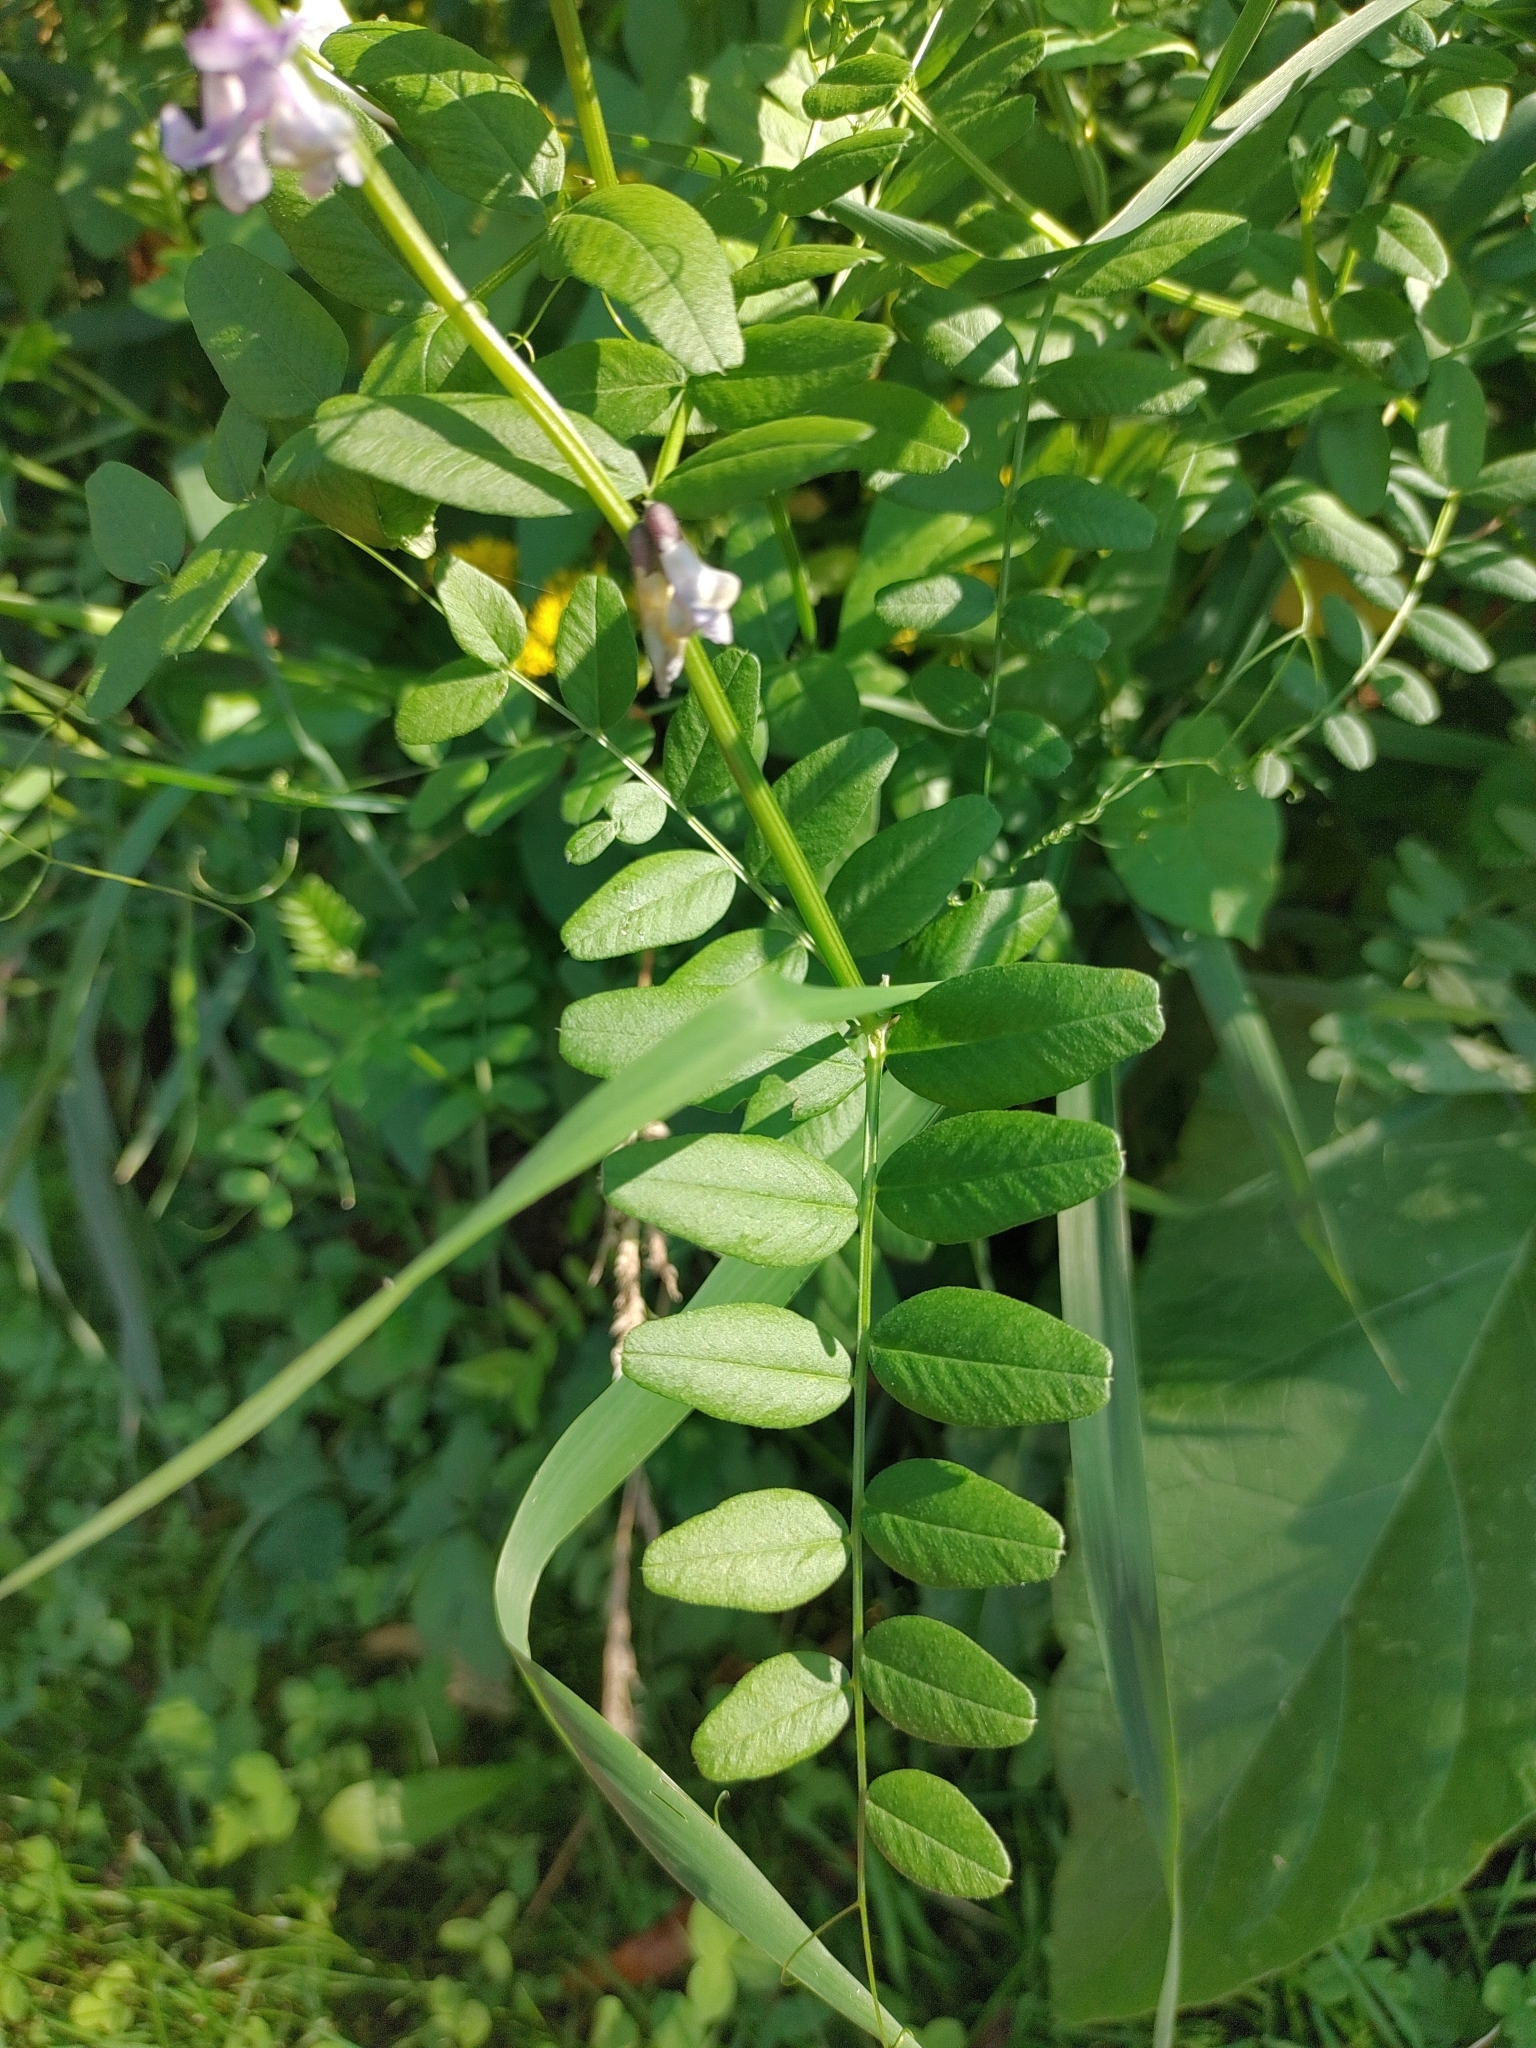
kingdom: Plantae
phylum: Tracheophyta
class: Magnoliopsida
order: Fabales
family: Fabaceae
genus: Vicia
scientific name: Vicia sepium
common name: Bush vetch
